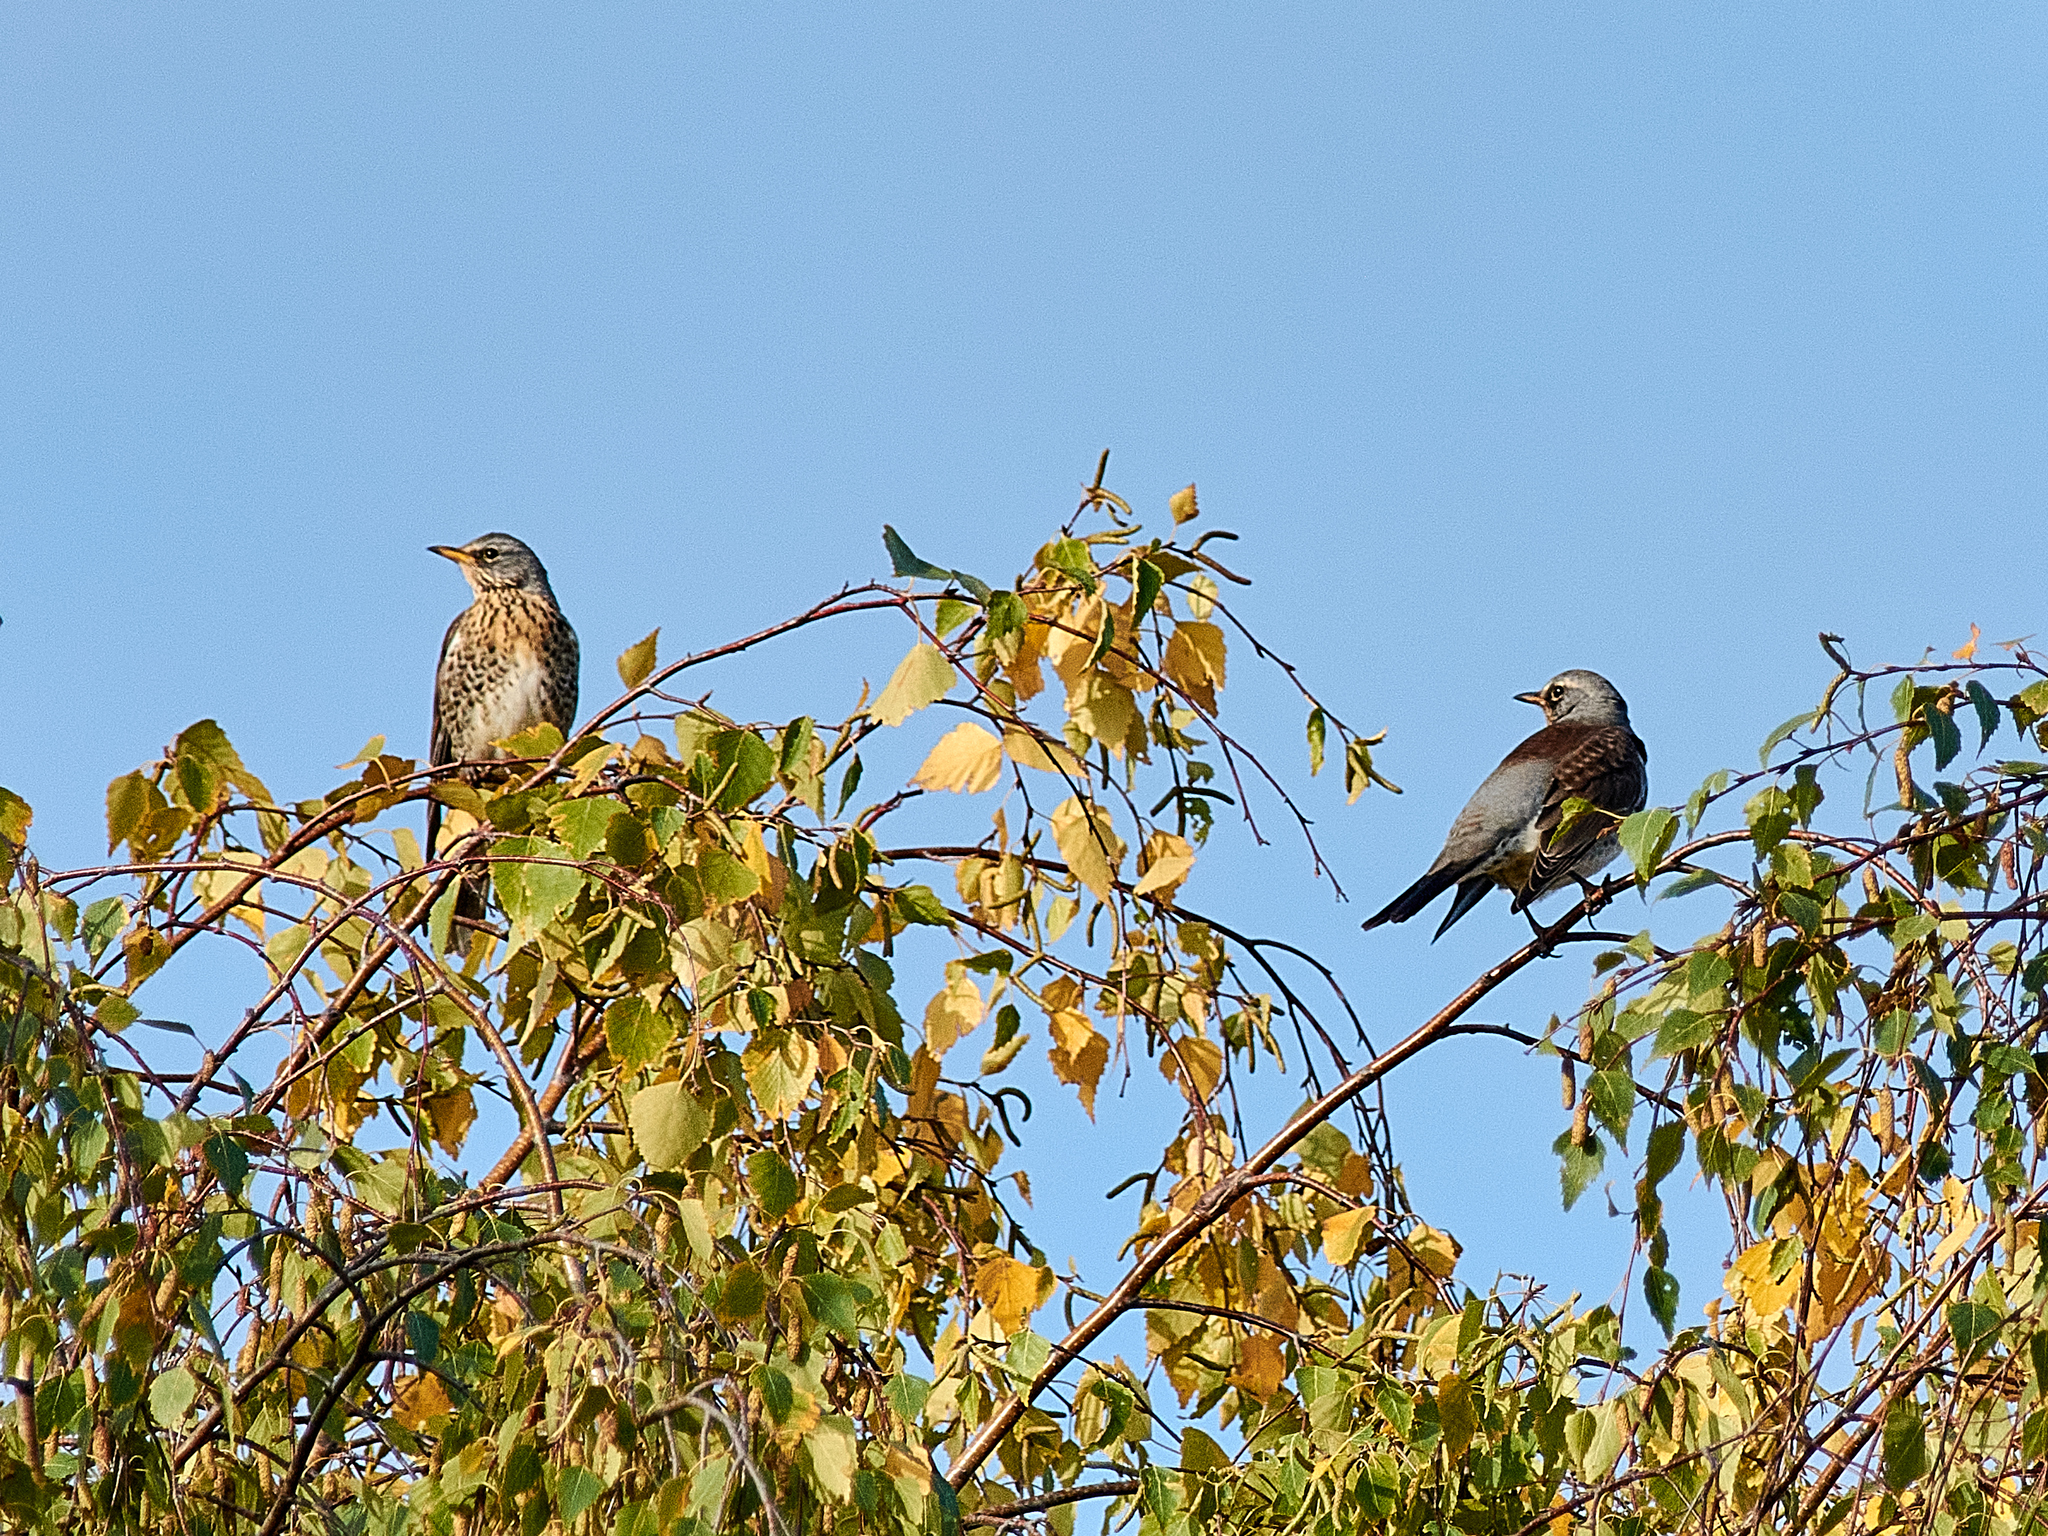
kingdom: Animalia
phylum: Chordata
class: Aves
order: Passeriformes
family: Turdidae
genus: Turdus
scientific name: Turdus pilaris
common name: Fieldfare
